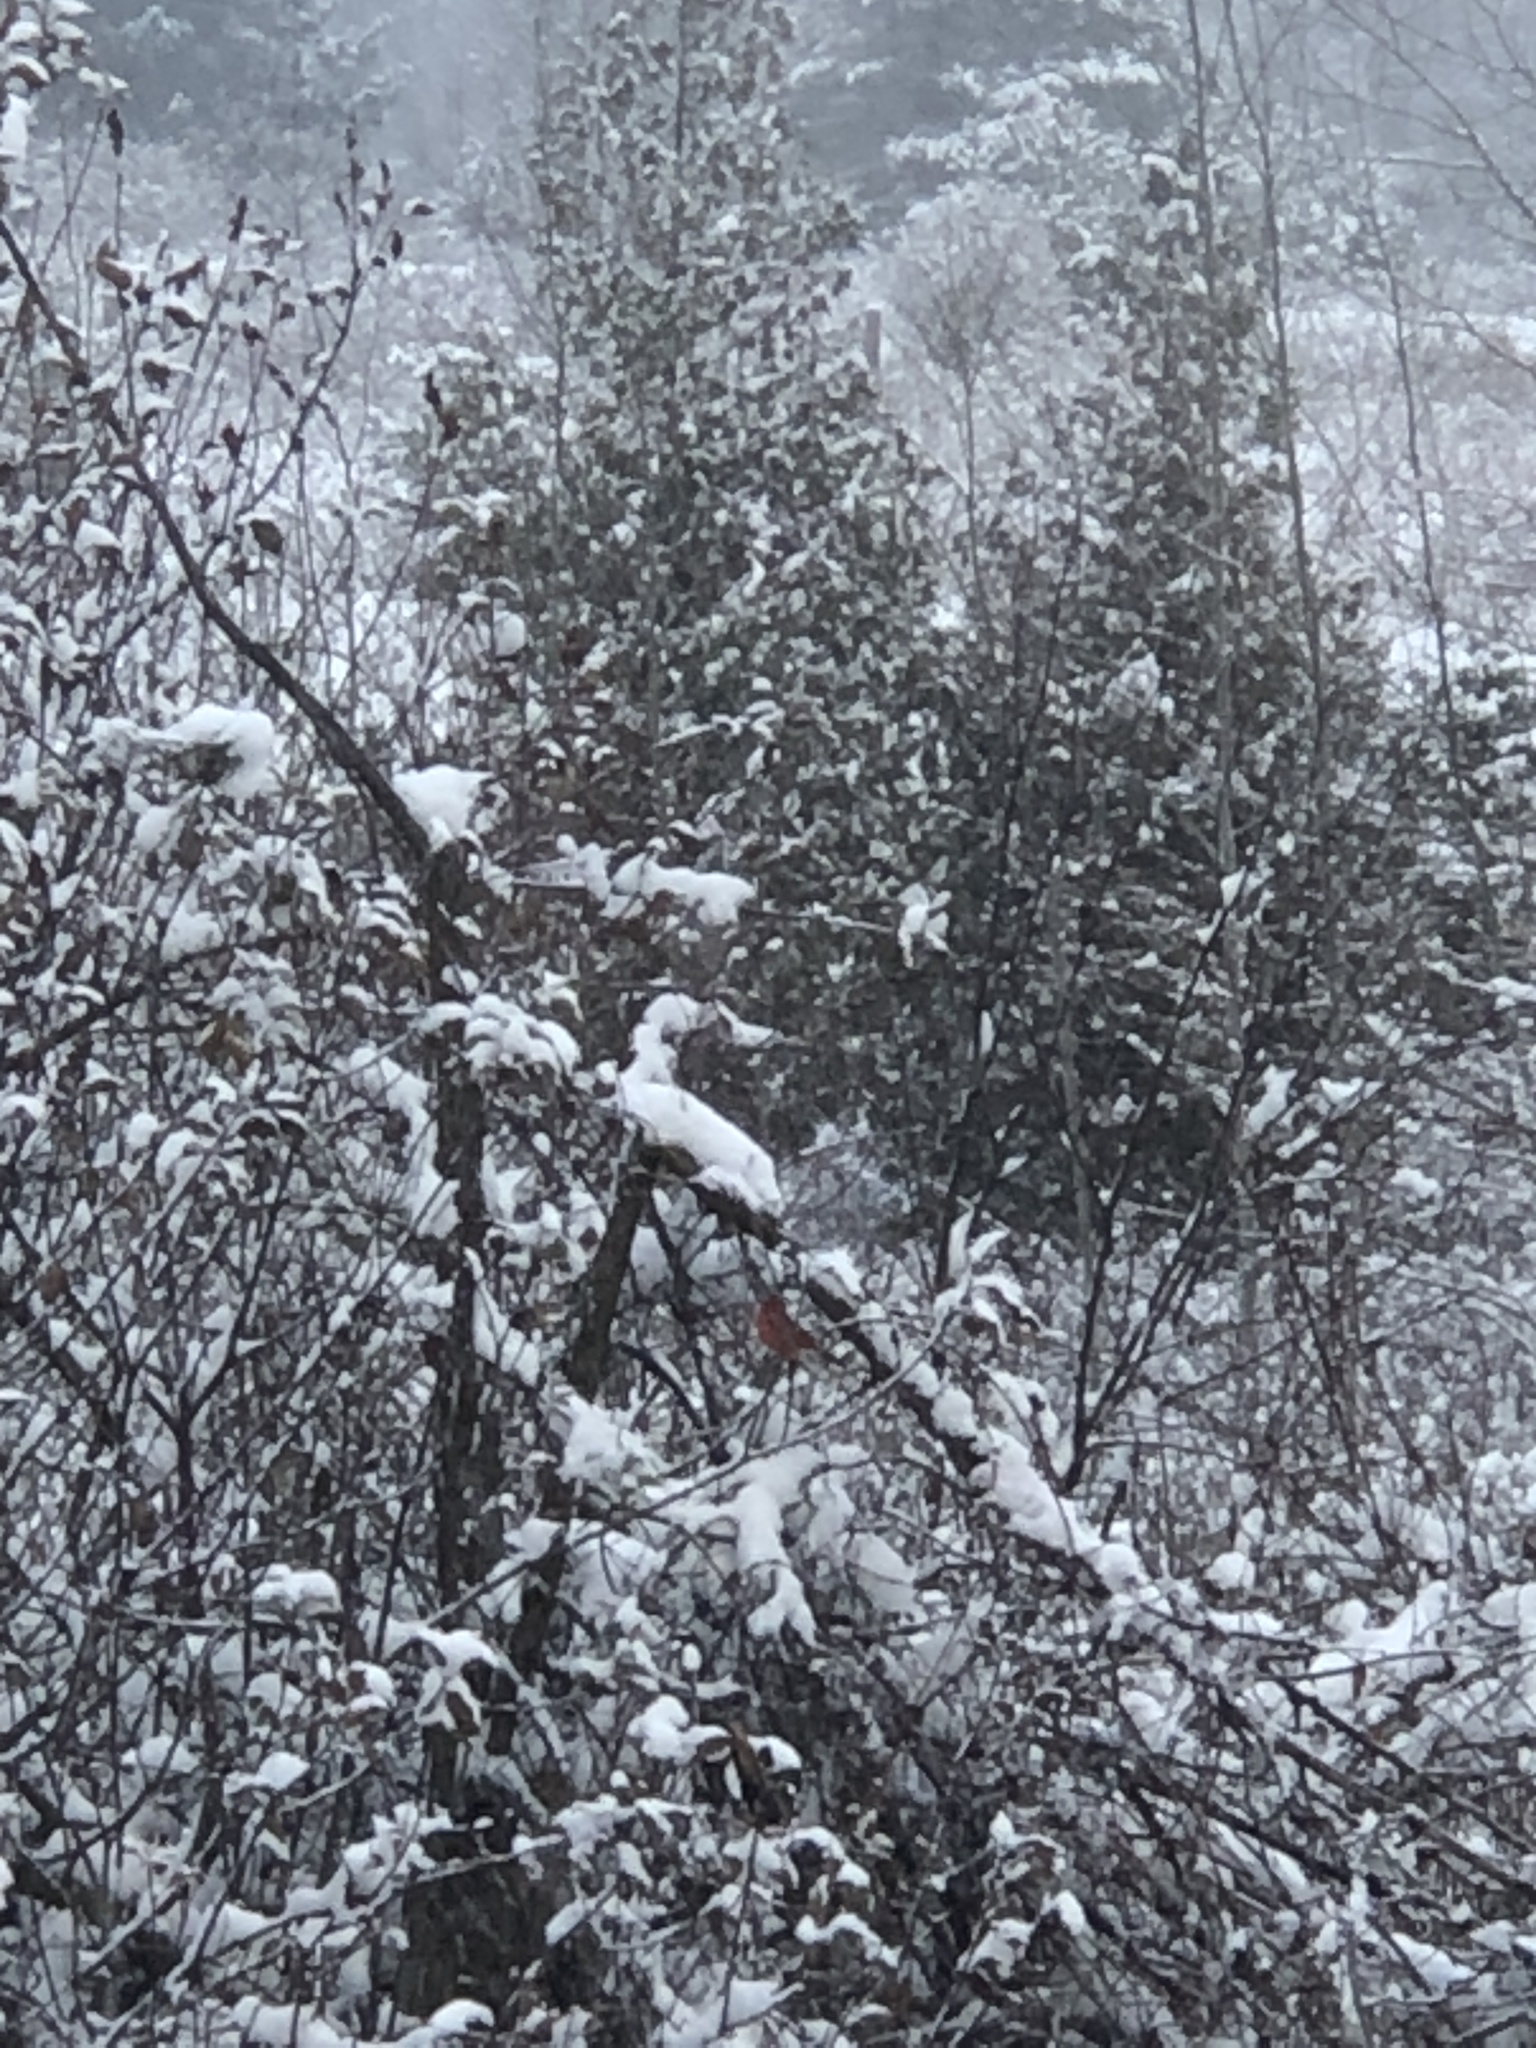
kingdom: Animalia
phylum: Chordata
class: Aves
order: Passeriformes
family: Cardinalidae
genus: Cardinalis
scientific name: Cardinalis cardinalis
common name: Northern cardinal
